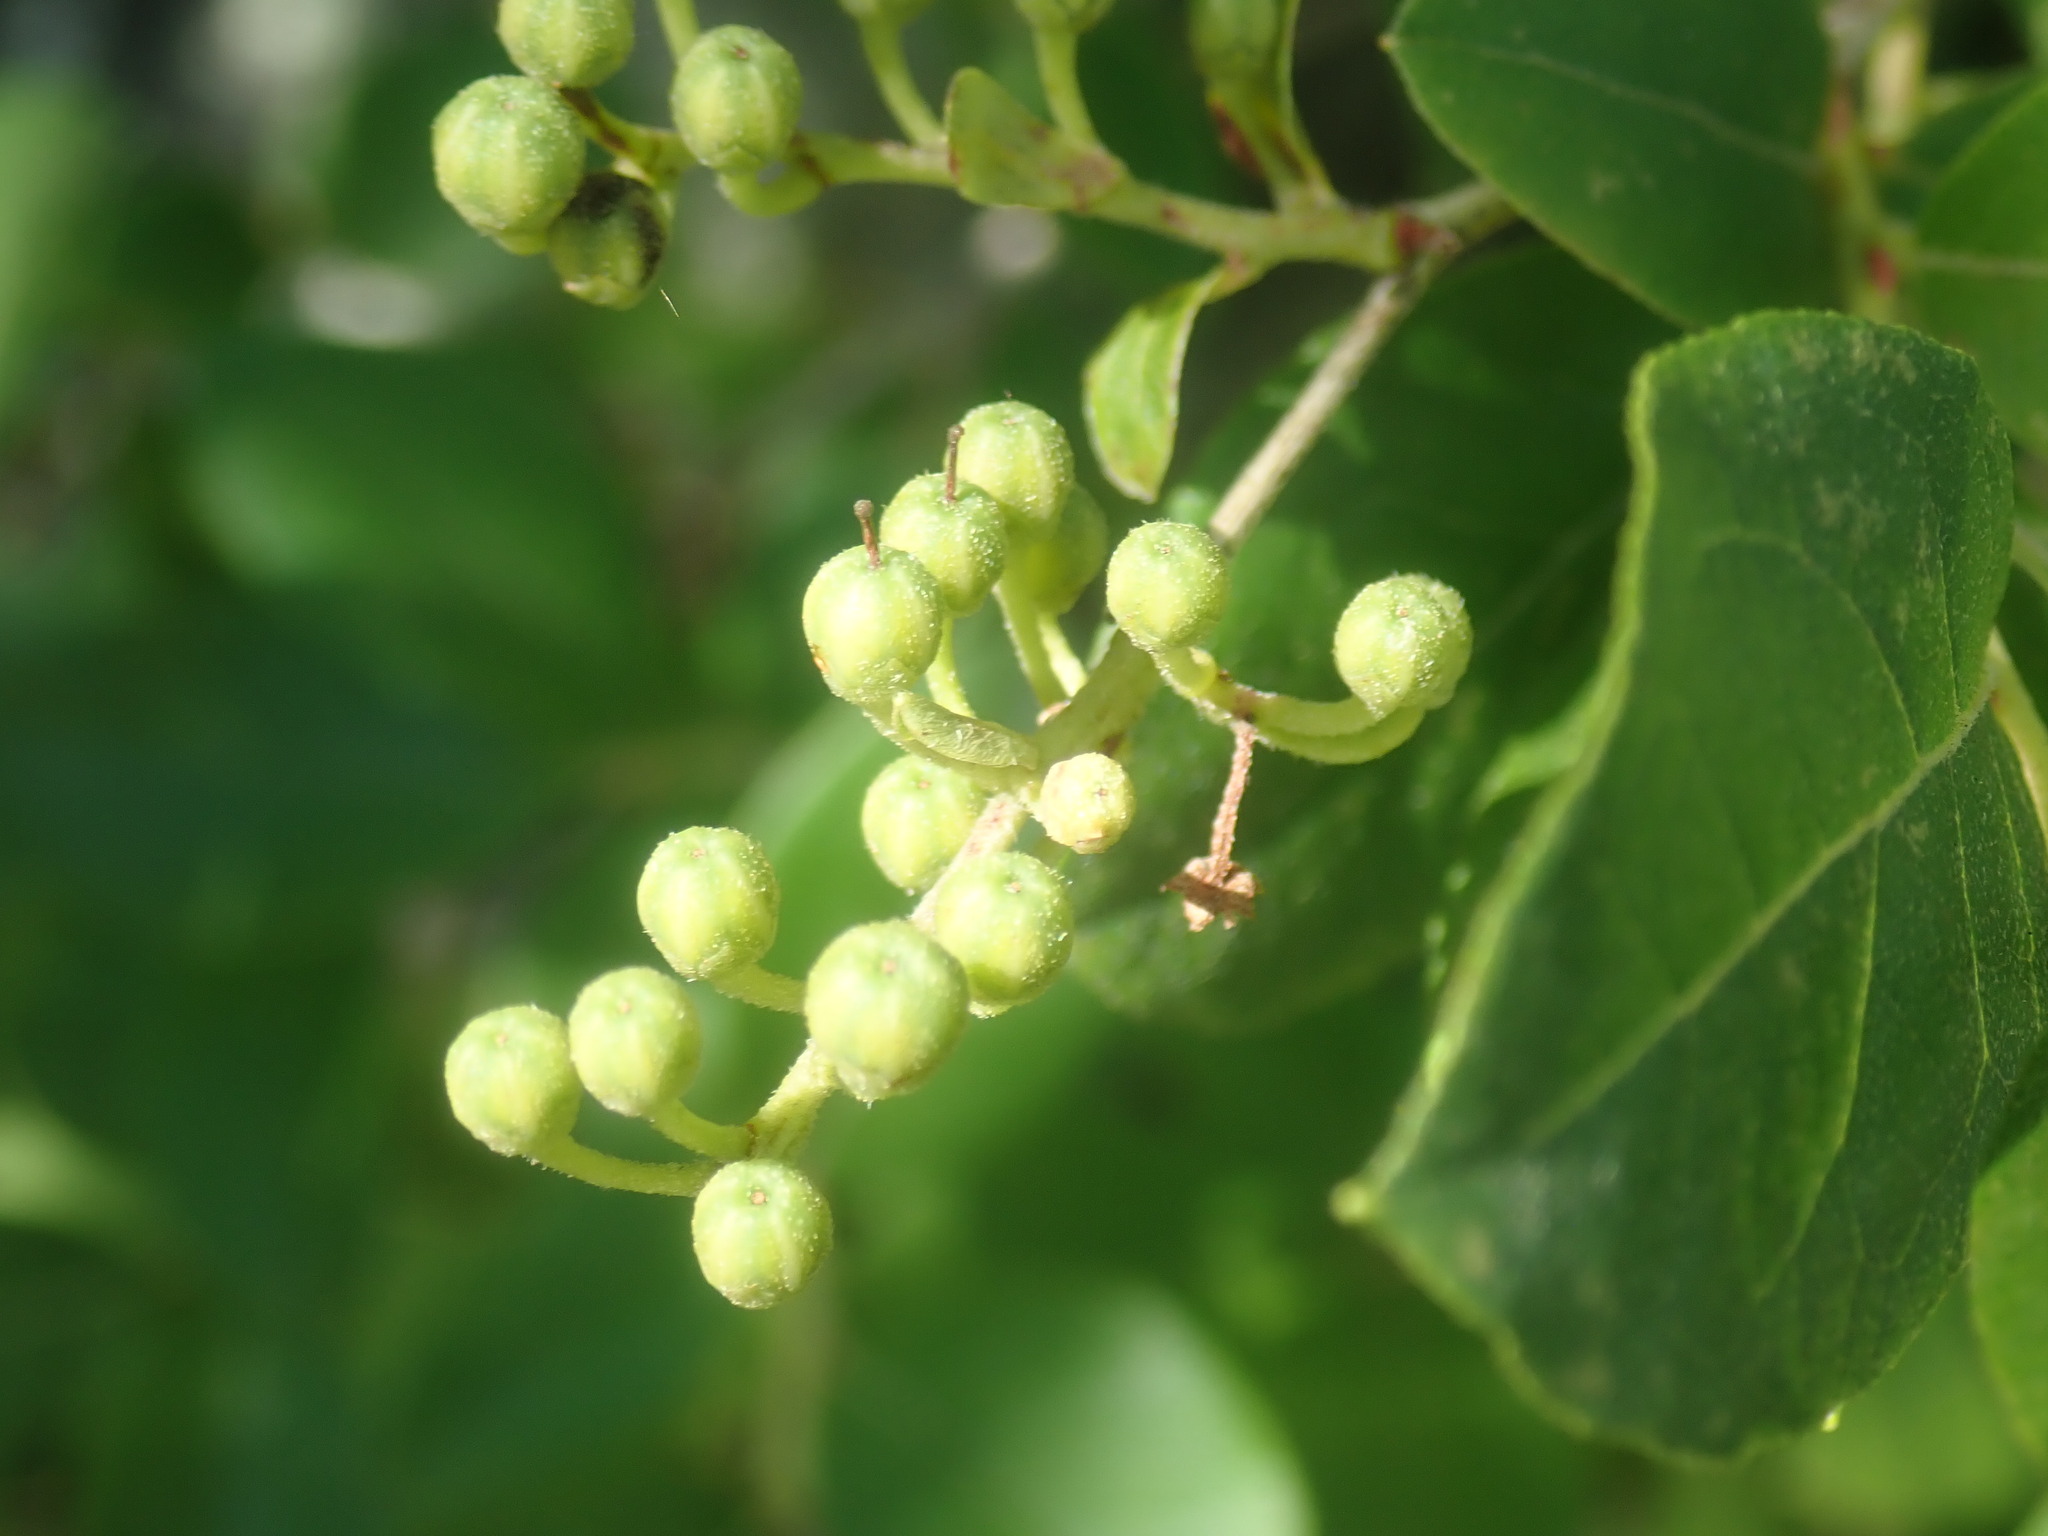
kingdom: Plantae
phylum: Tracheophyta
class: Magnoliopsida
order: Ericales
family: Ericaceae
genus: Lyonia
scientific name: Lyonia ligustrina
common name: Maleberry
